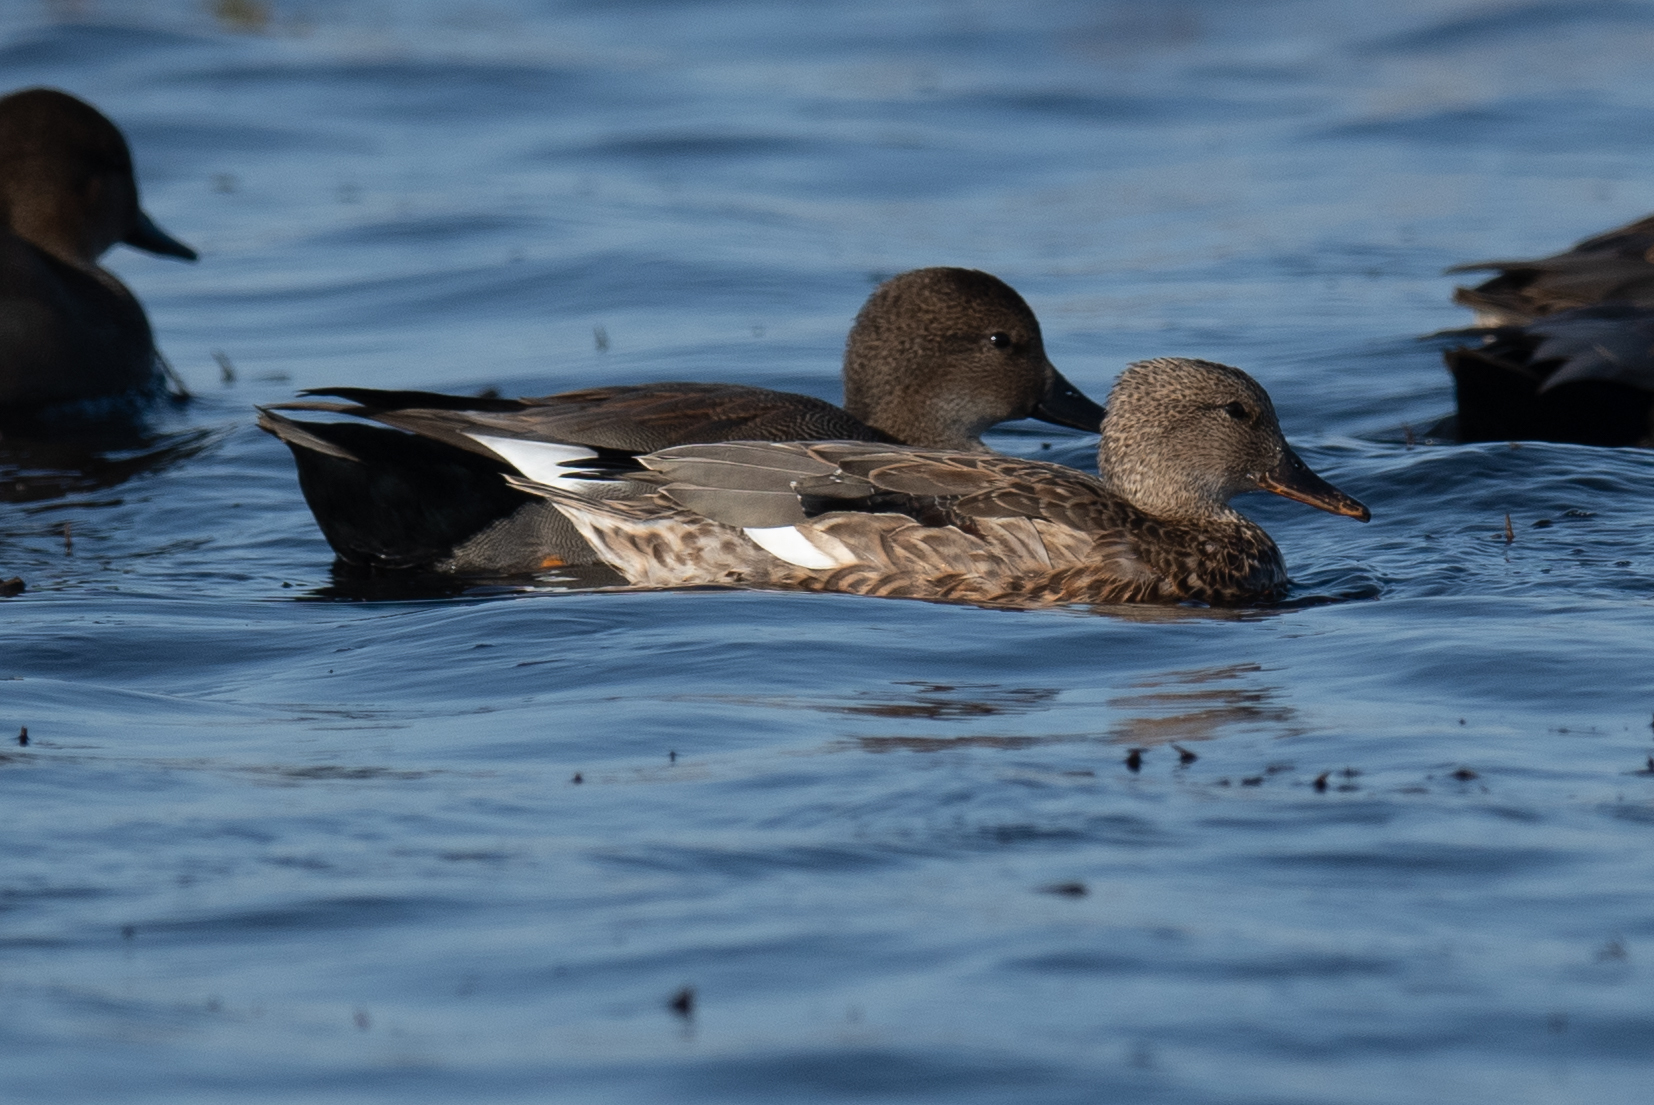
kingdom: Animalia
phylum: Chordata
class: Aves
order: Anseriformes
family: Anatidae
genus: Mareca
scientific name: Mareca strepera
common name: Gadwall
